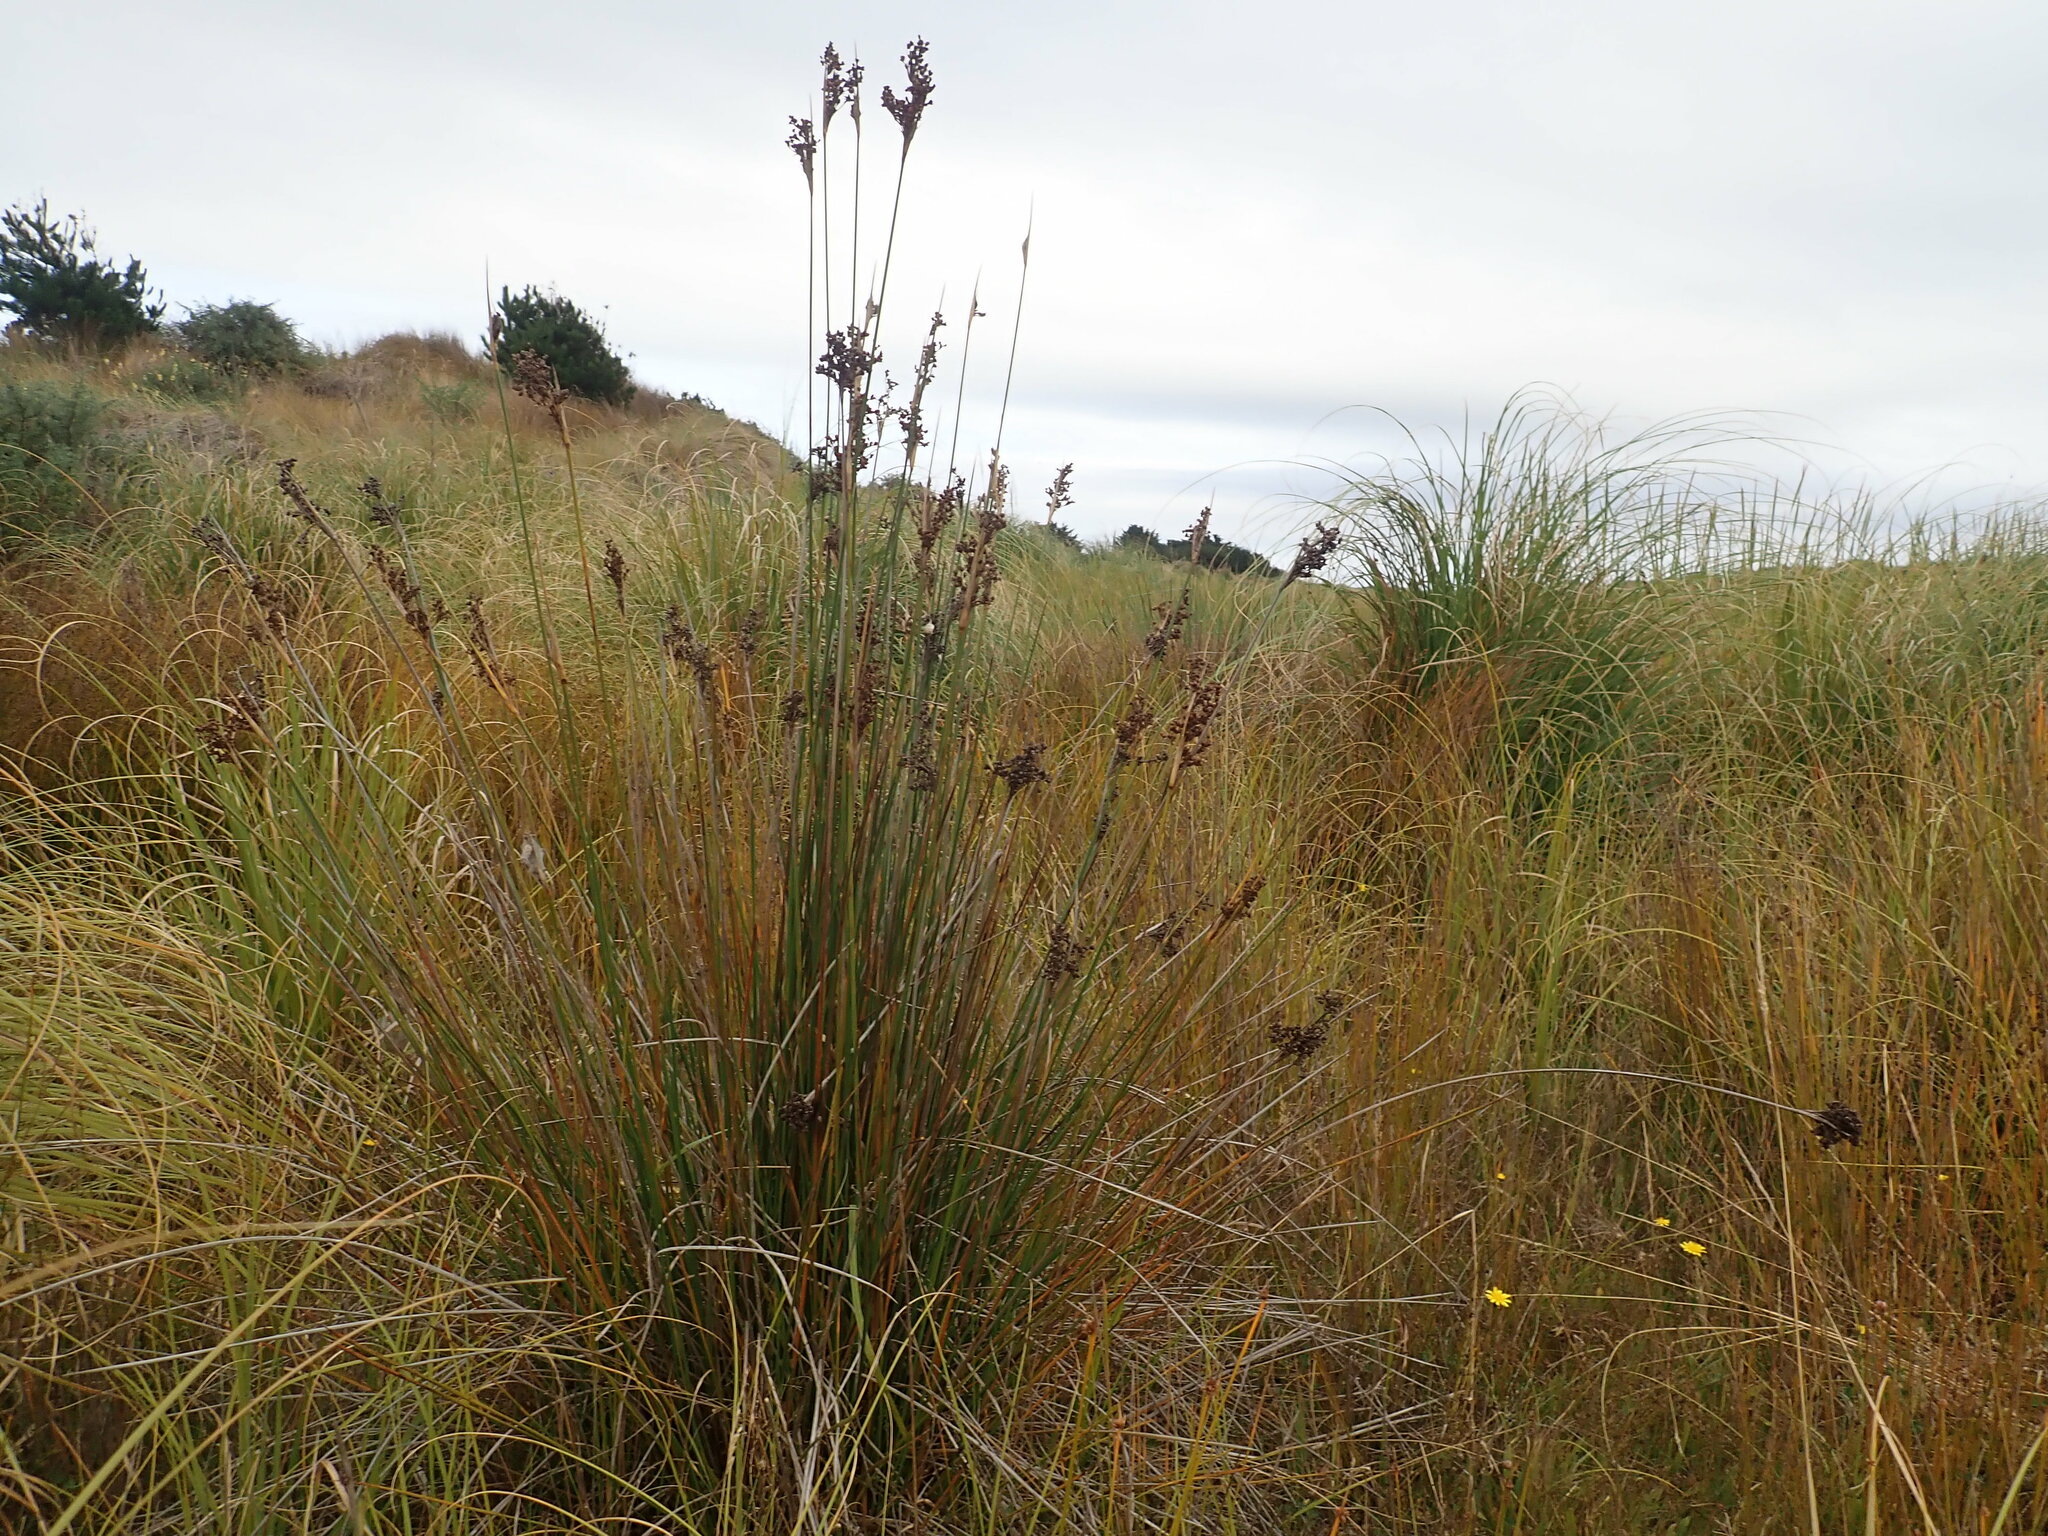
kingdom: Plantae
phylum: Tracheophyta
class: Liliopsida
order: Poales
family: Juncaceae
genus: Juncus
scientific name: Juncus acutus
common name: Sharp rush
